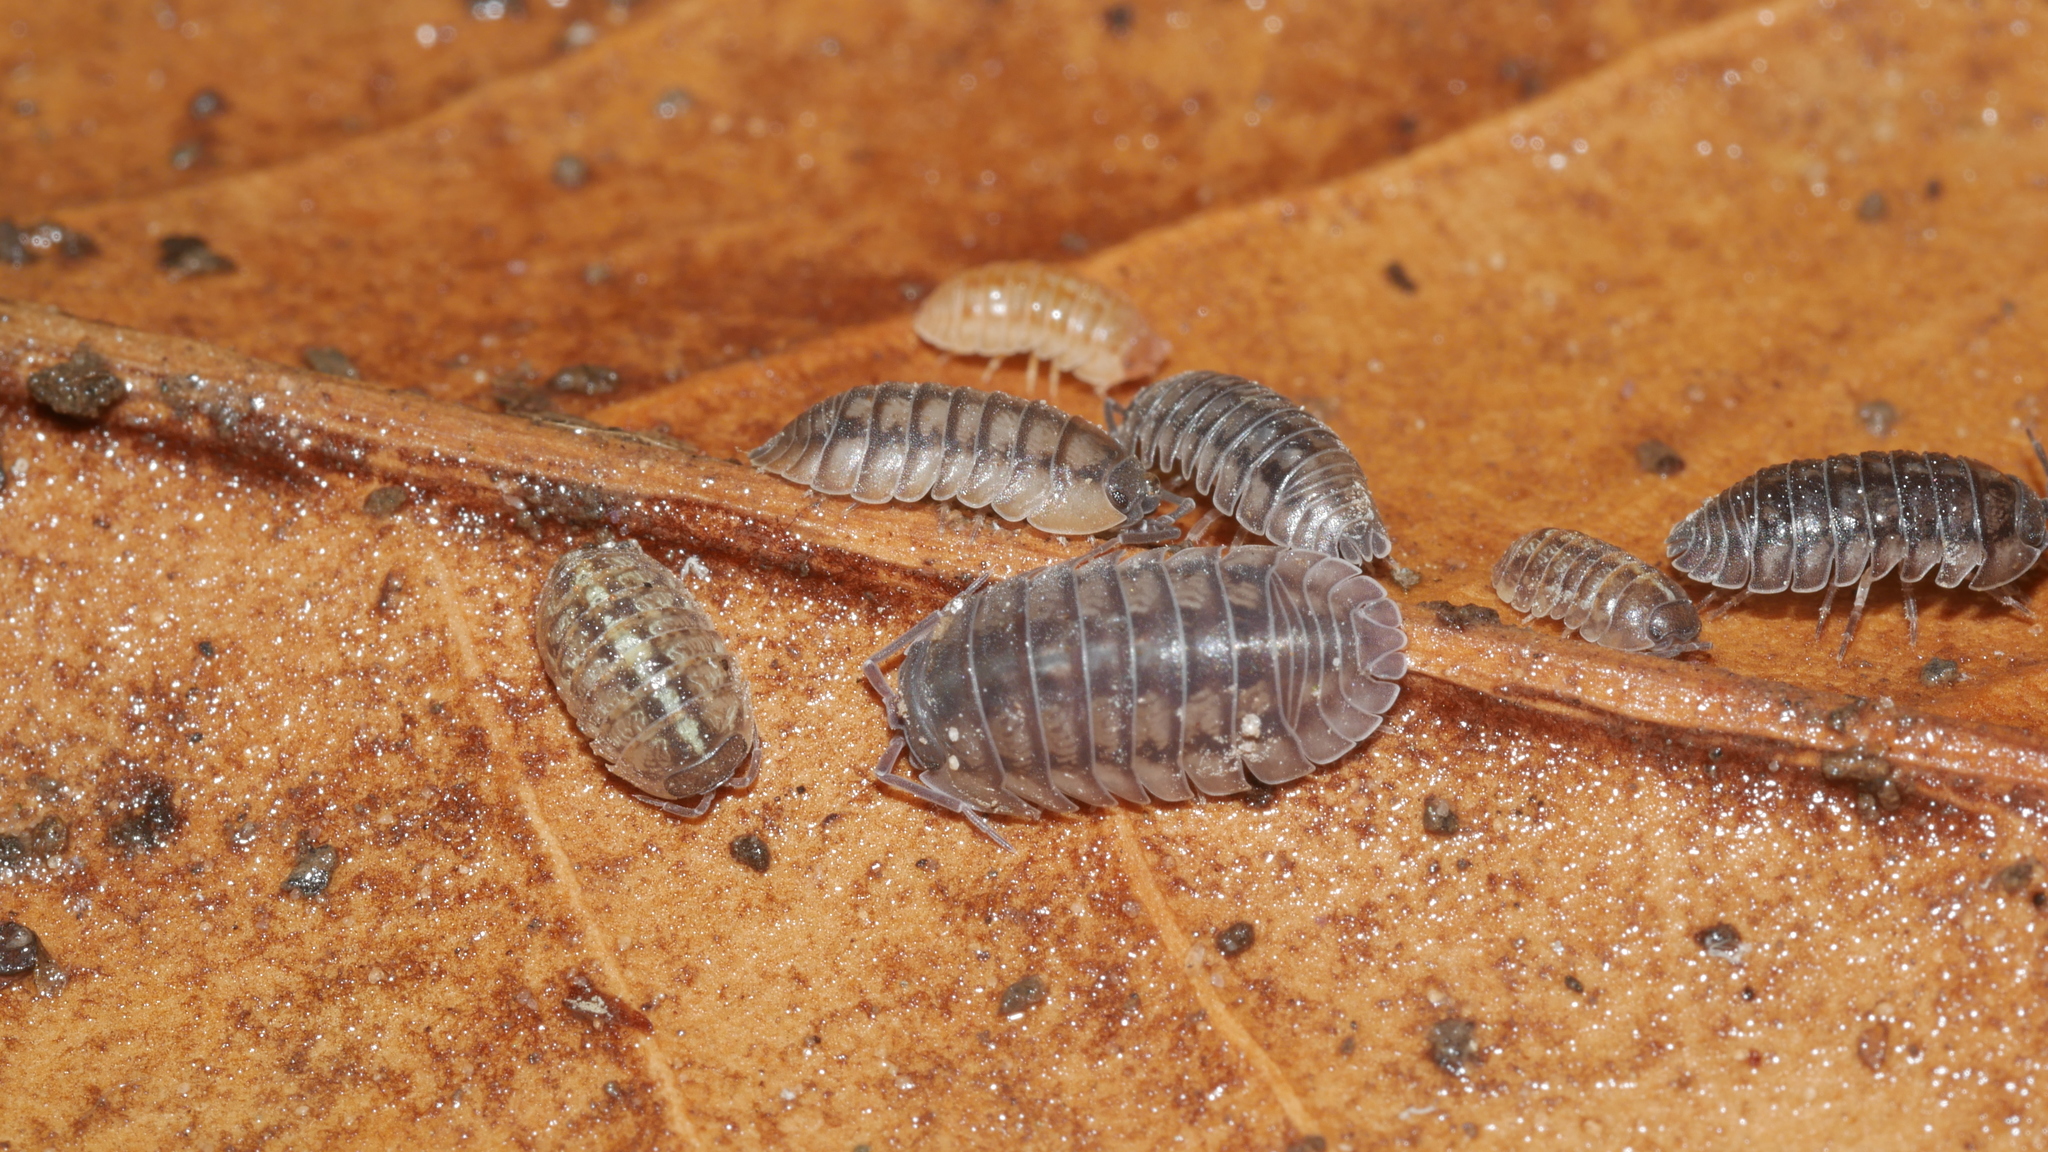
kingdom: Animalia
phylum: Arthropoda
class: Malacostraca
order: Isopoda
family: Armadillidiidae
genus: Armadillidium
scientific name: Armadillidium nasatum
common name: Isopod
